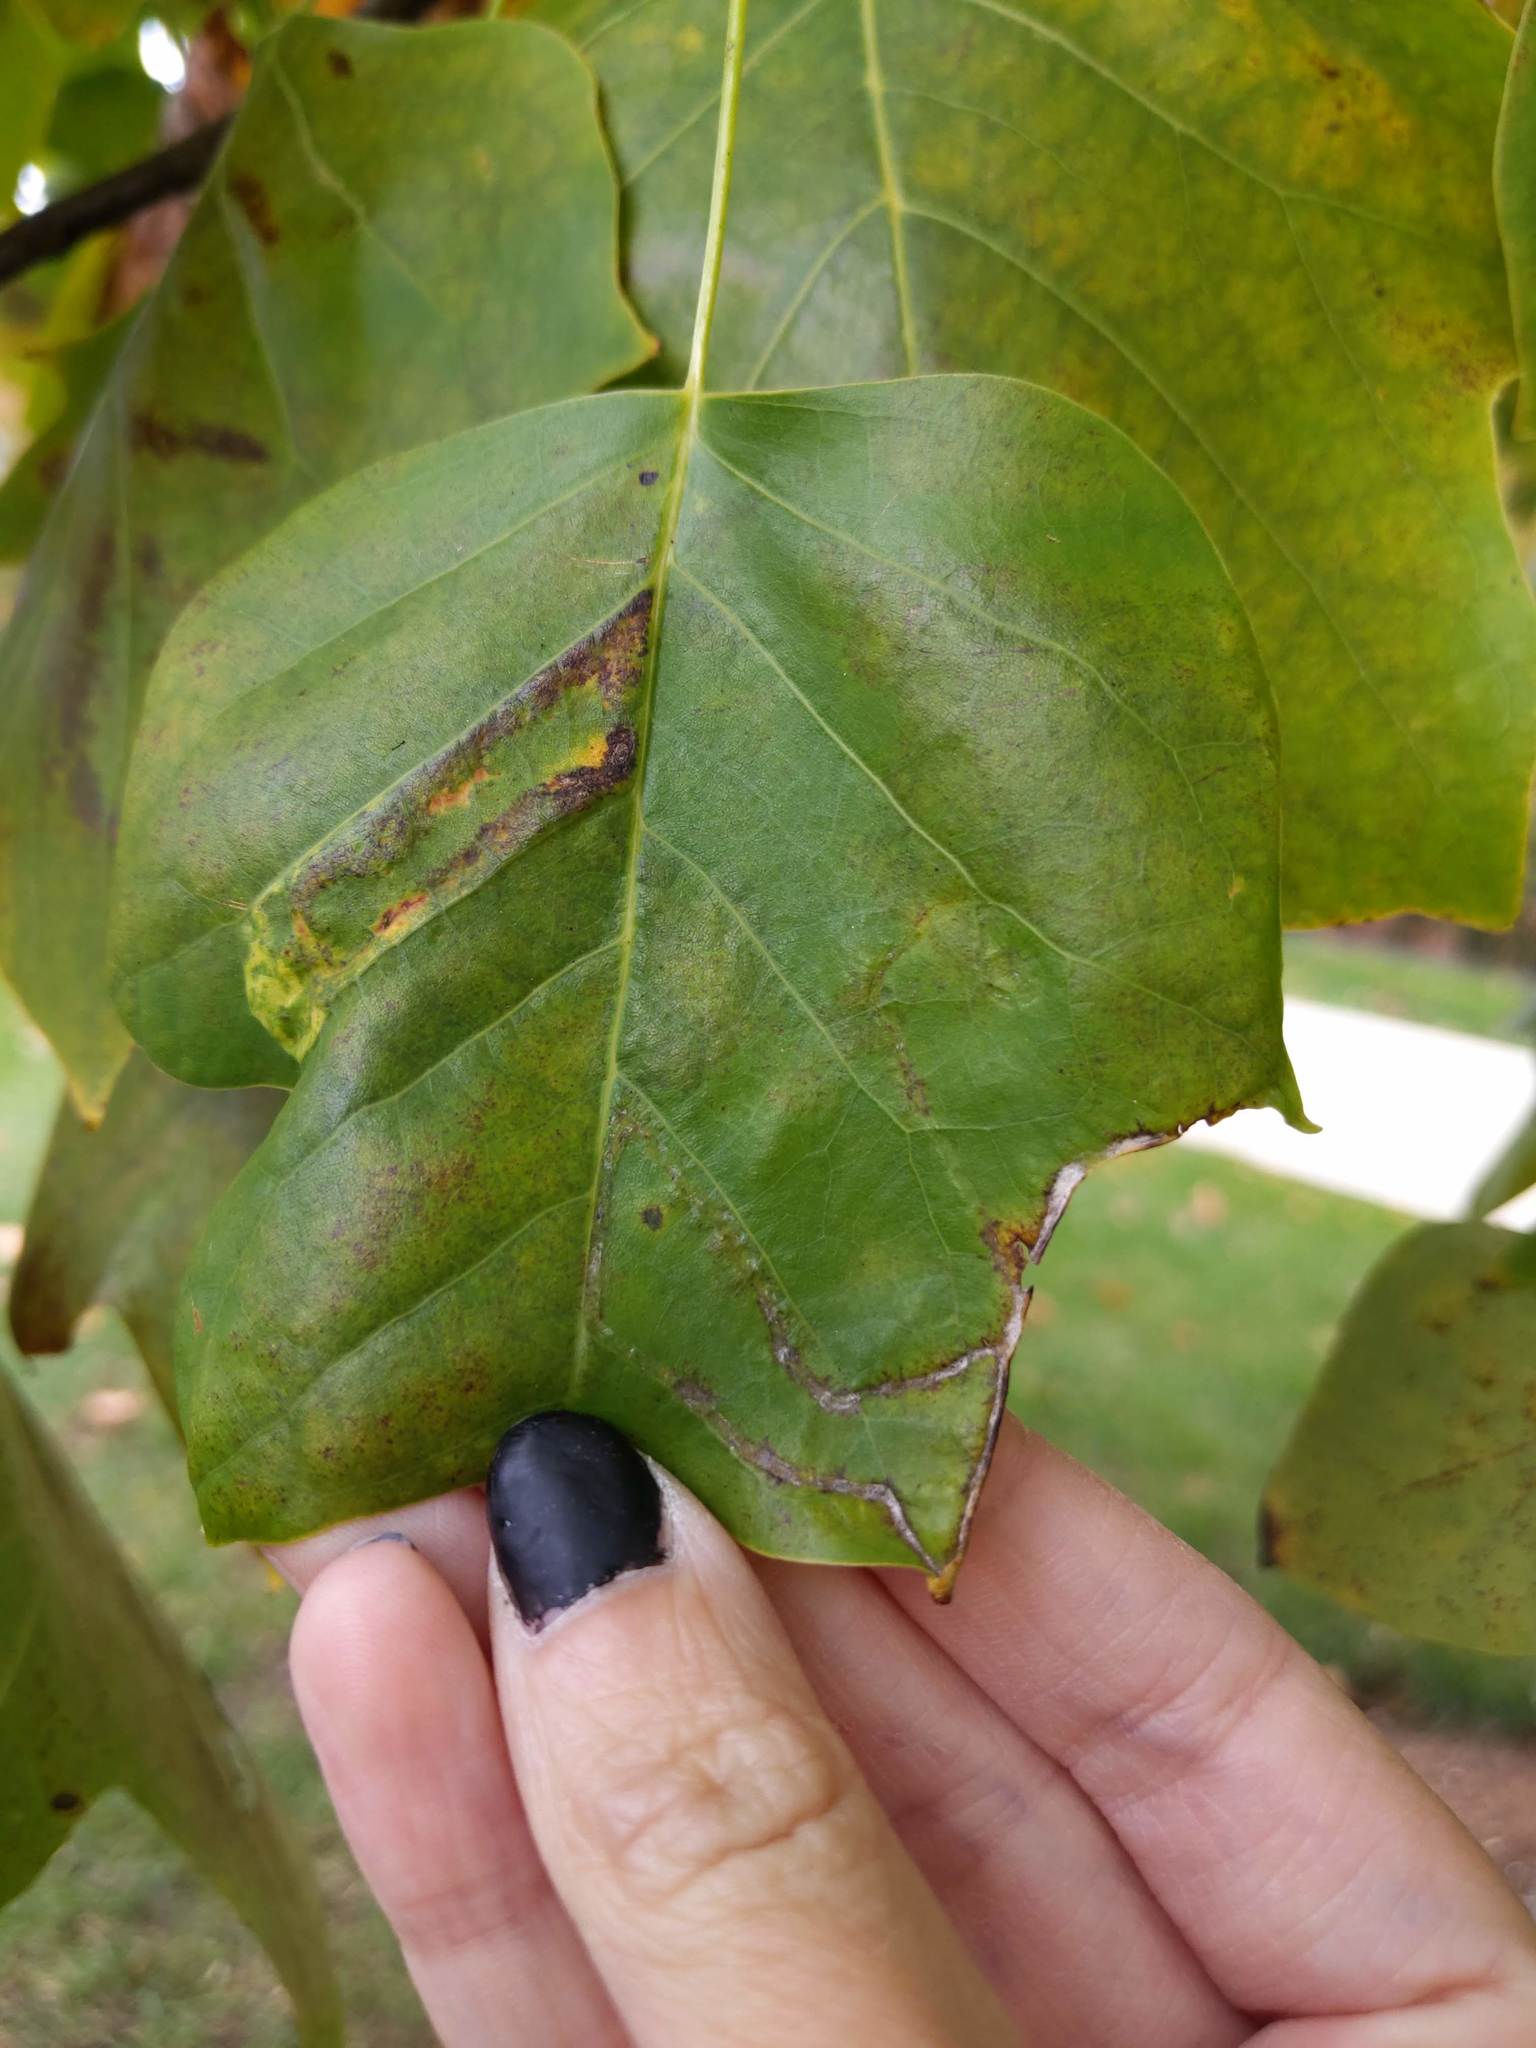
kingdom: Animalia
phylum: Arthropoda
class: Insecta
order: Lepidoptera
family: Gracillariidae
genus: Phyllocnistis
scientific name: Phyllocnistis liriodendronella
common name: Tulip tree leaf miner
